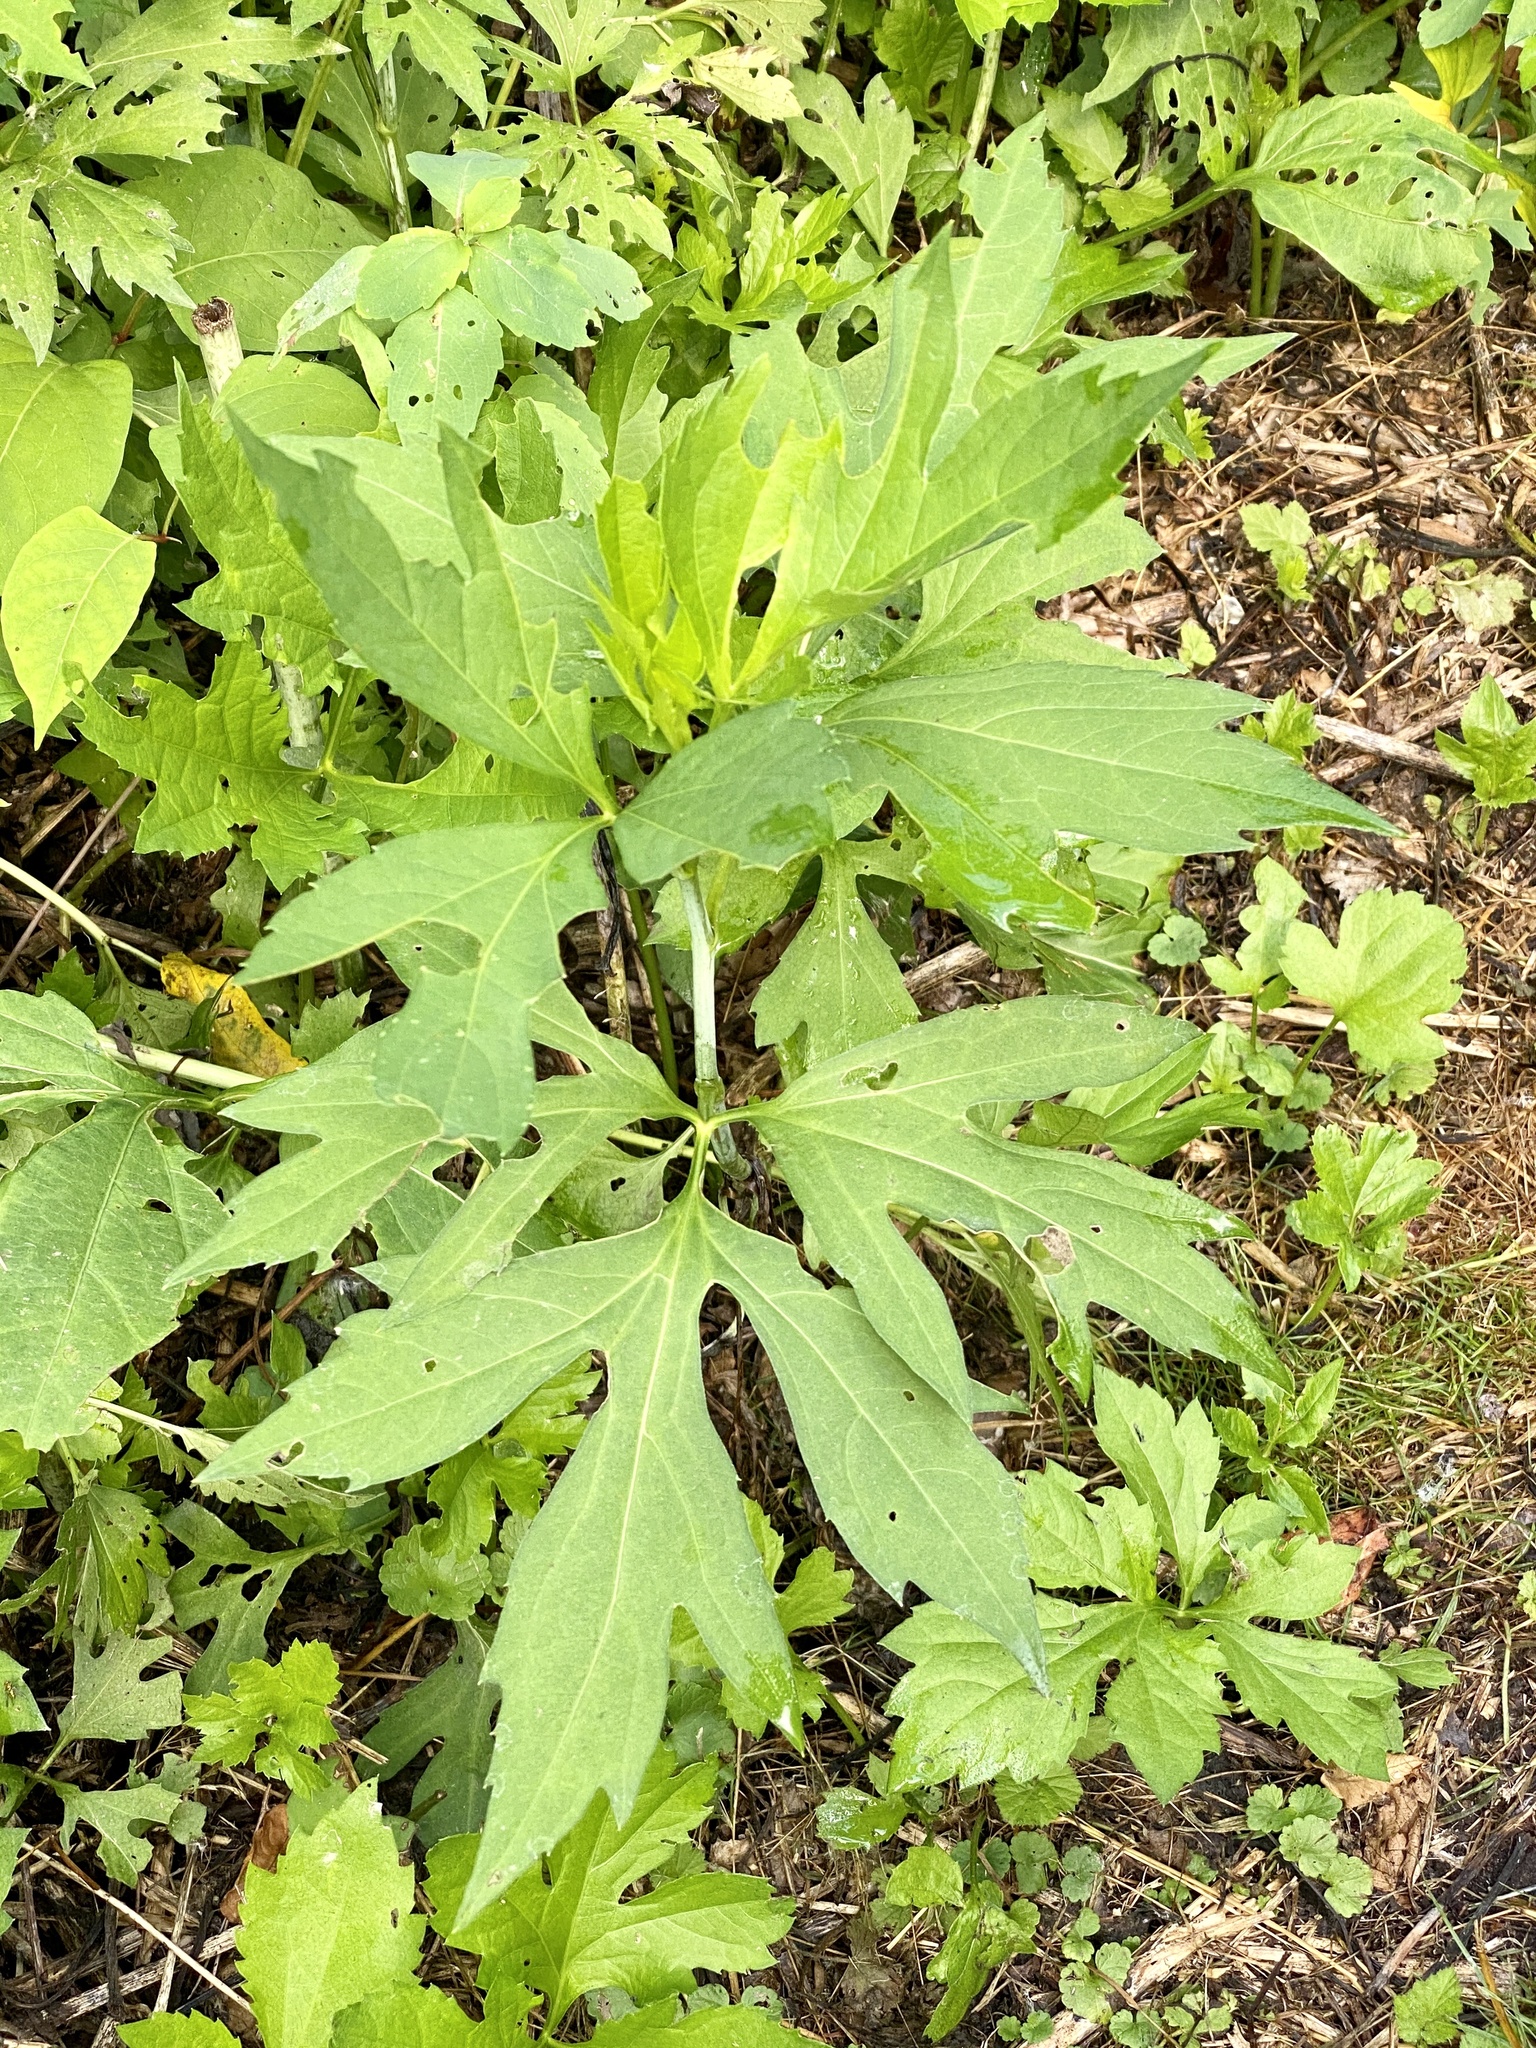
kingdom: Plantae
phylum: Tracheophyta
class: Magnoliopsida
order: Asterales
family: Asteraceae
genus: Rudbeckia
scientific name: Rudbeckia laciniata
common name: Coneflower
